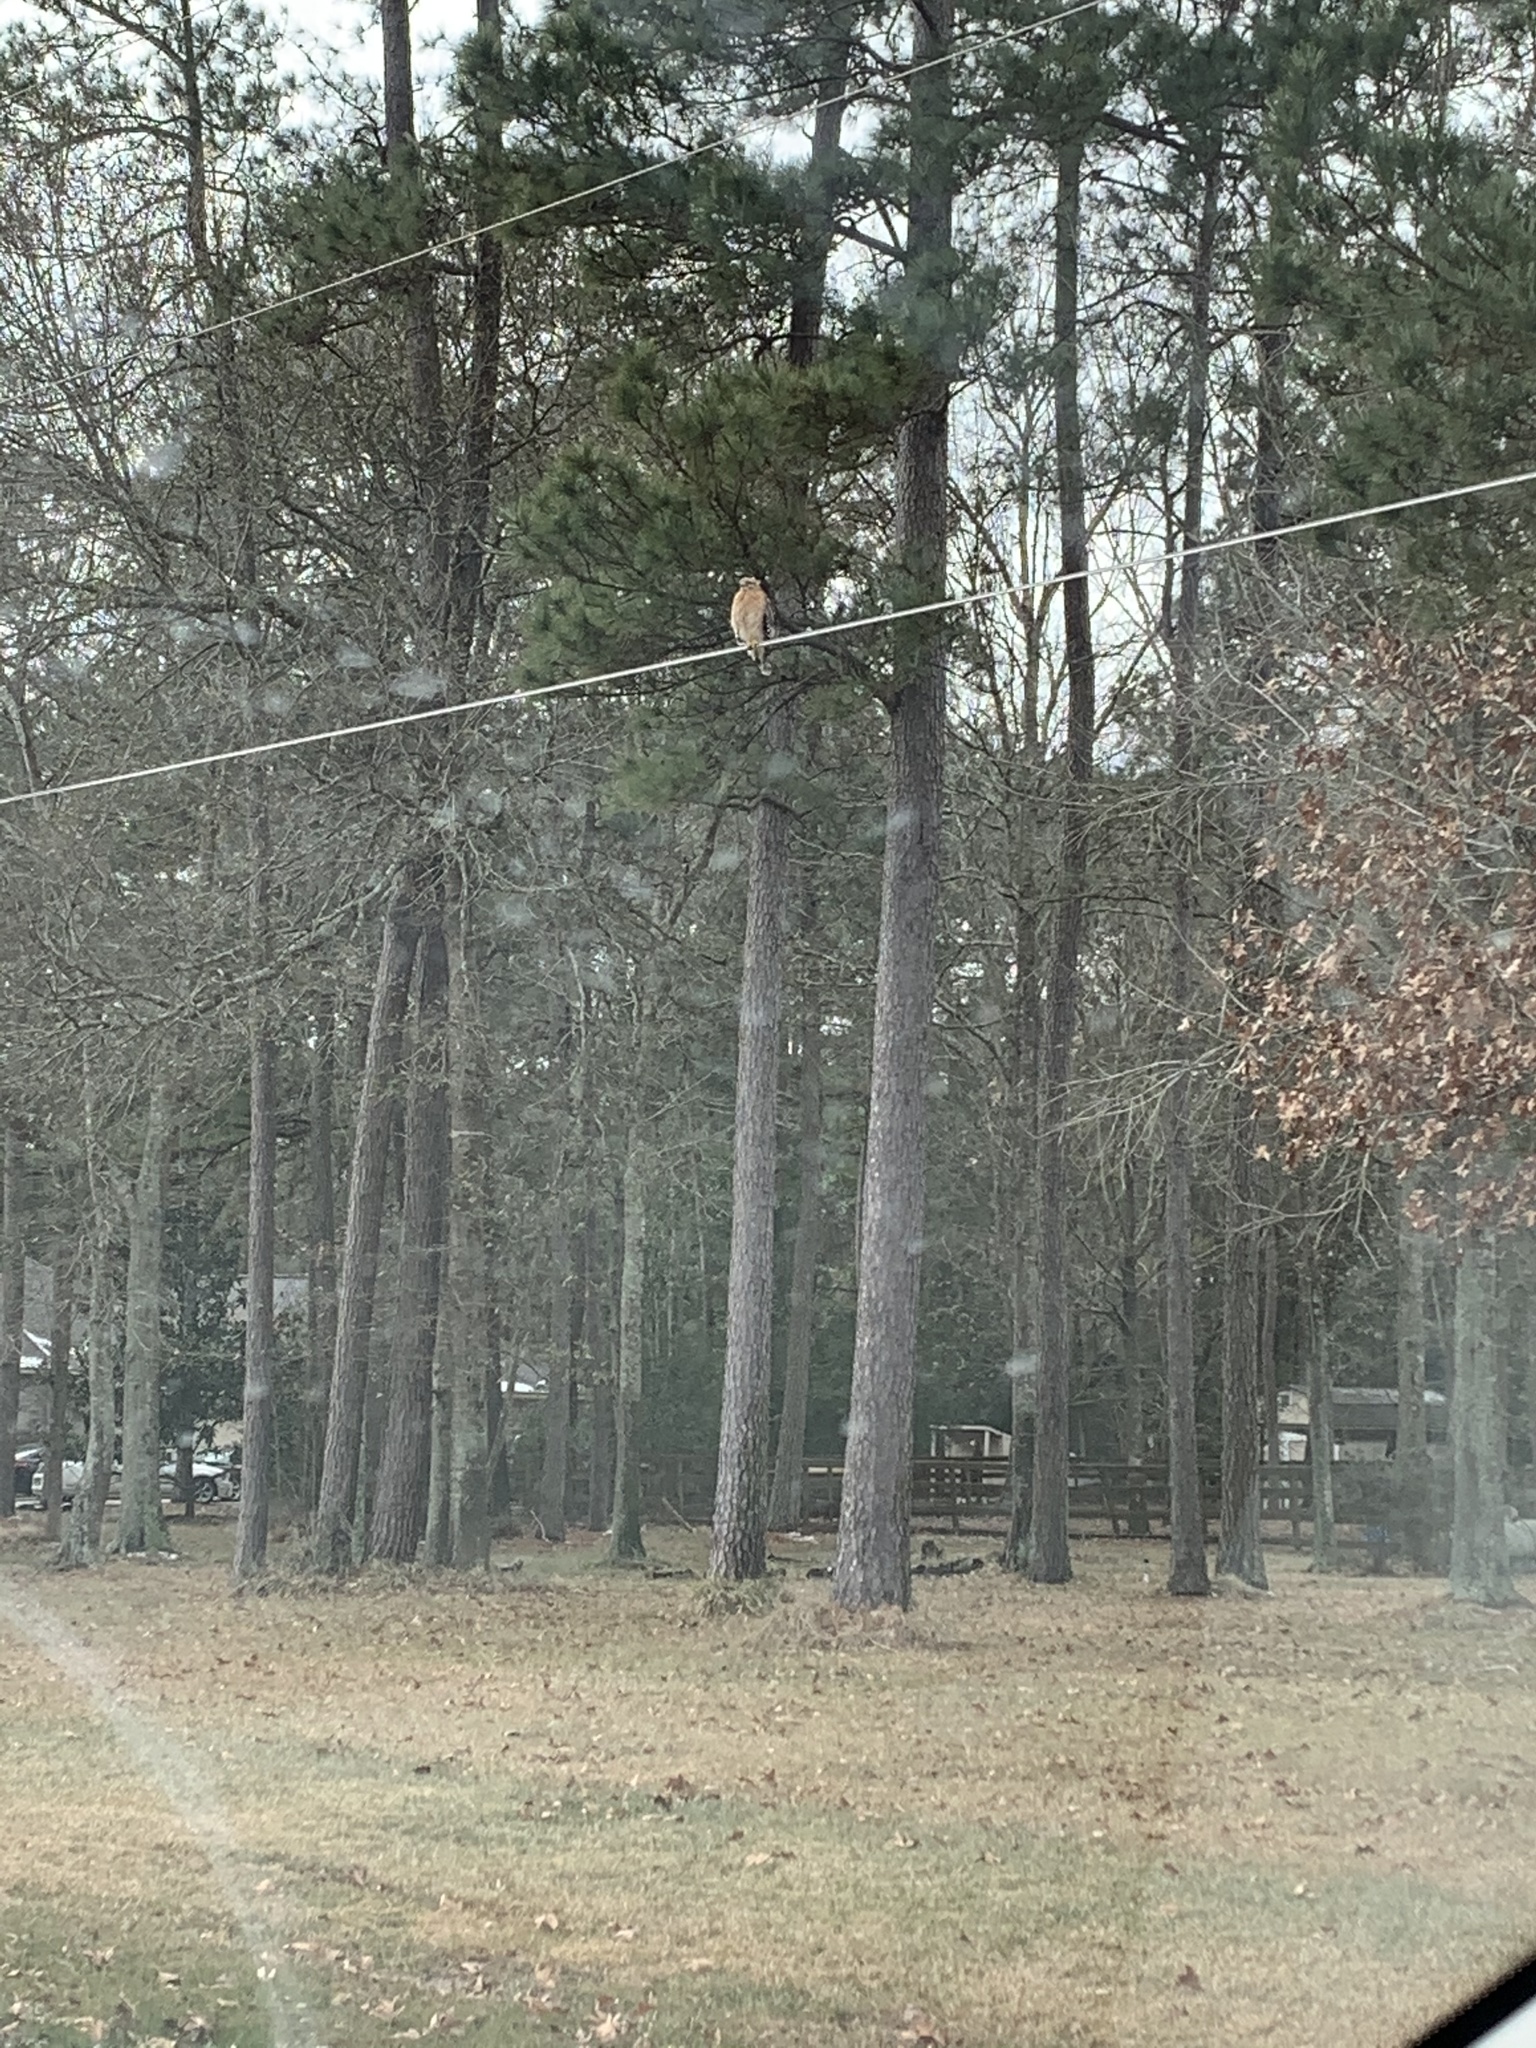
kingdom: Animalia
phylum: Chordata
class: Aves
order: Accipitriformes
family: Accipitridae
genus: Buteo
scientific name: Buteo lineatus
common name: Red-shouldered hawk
